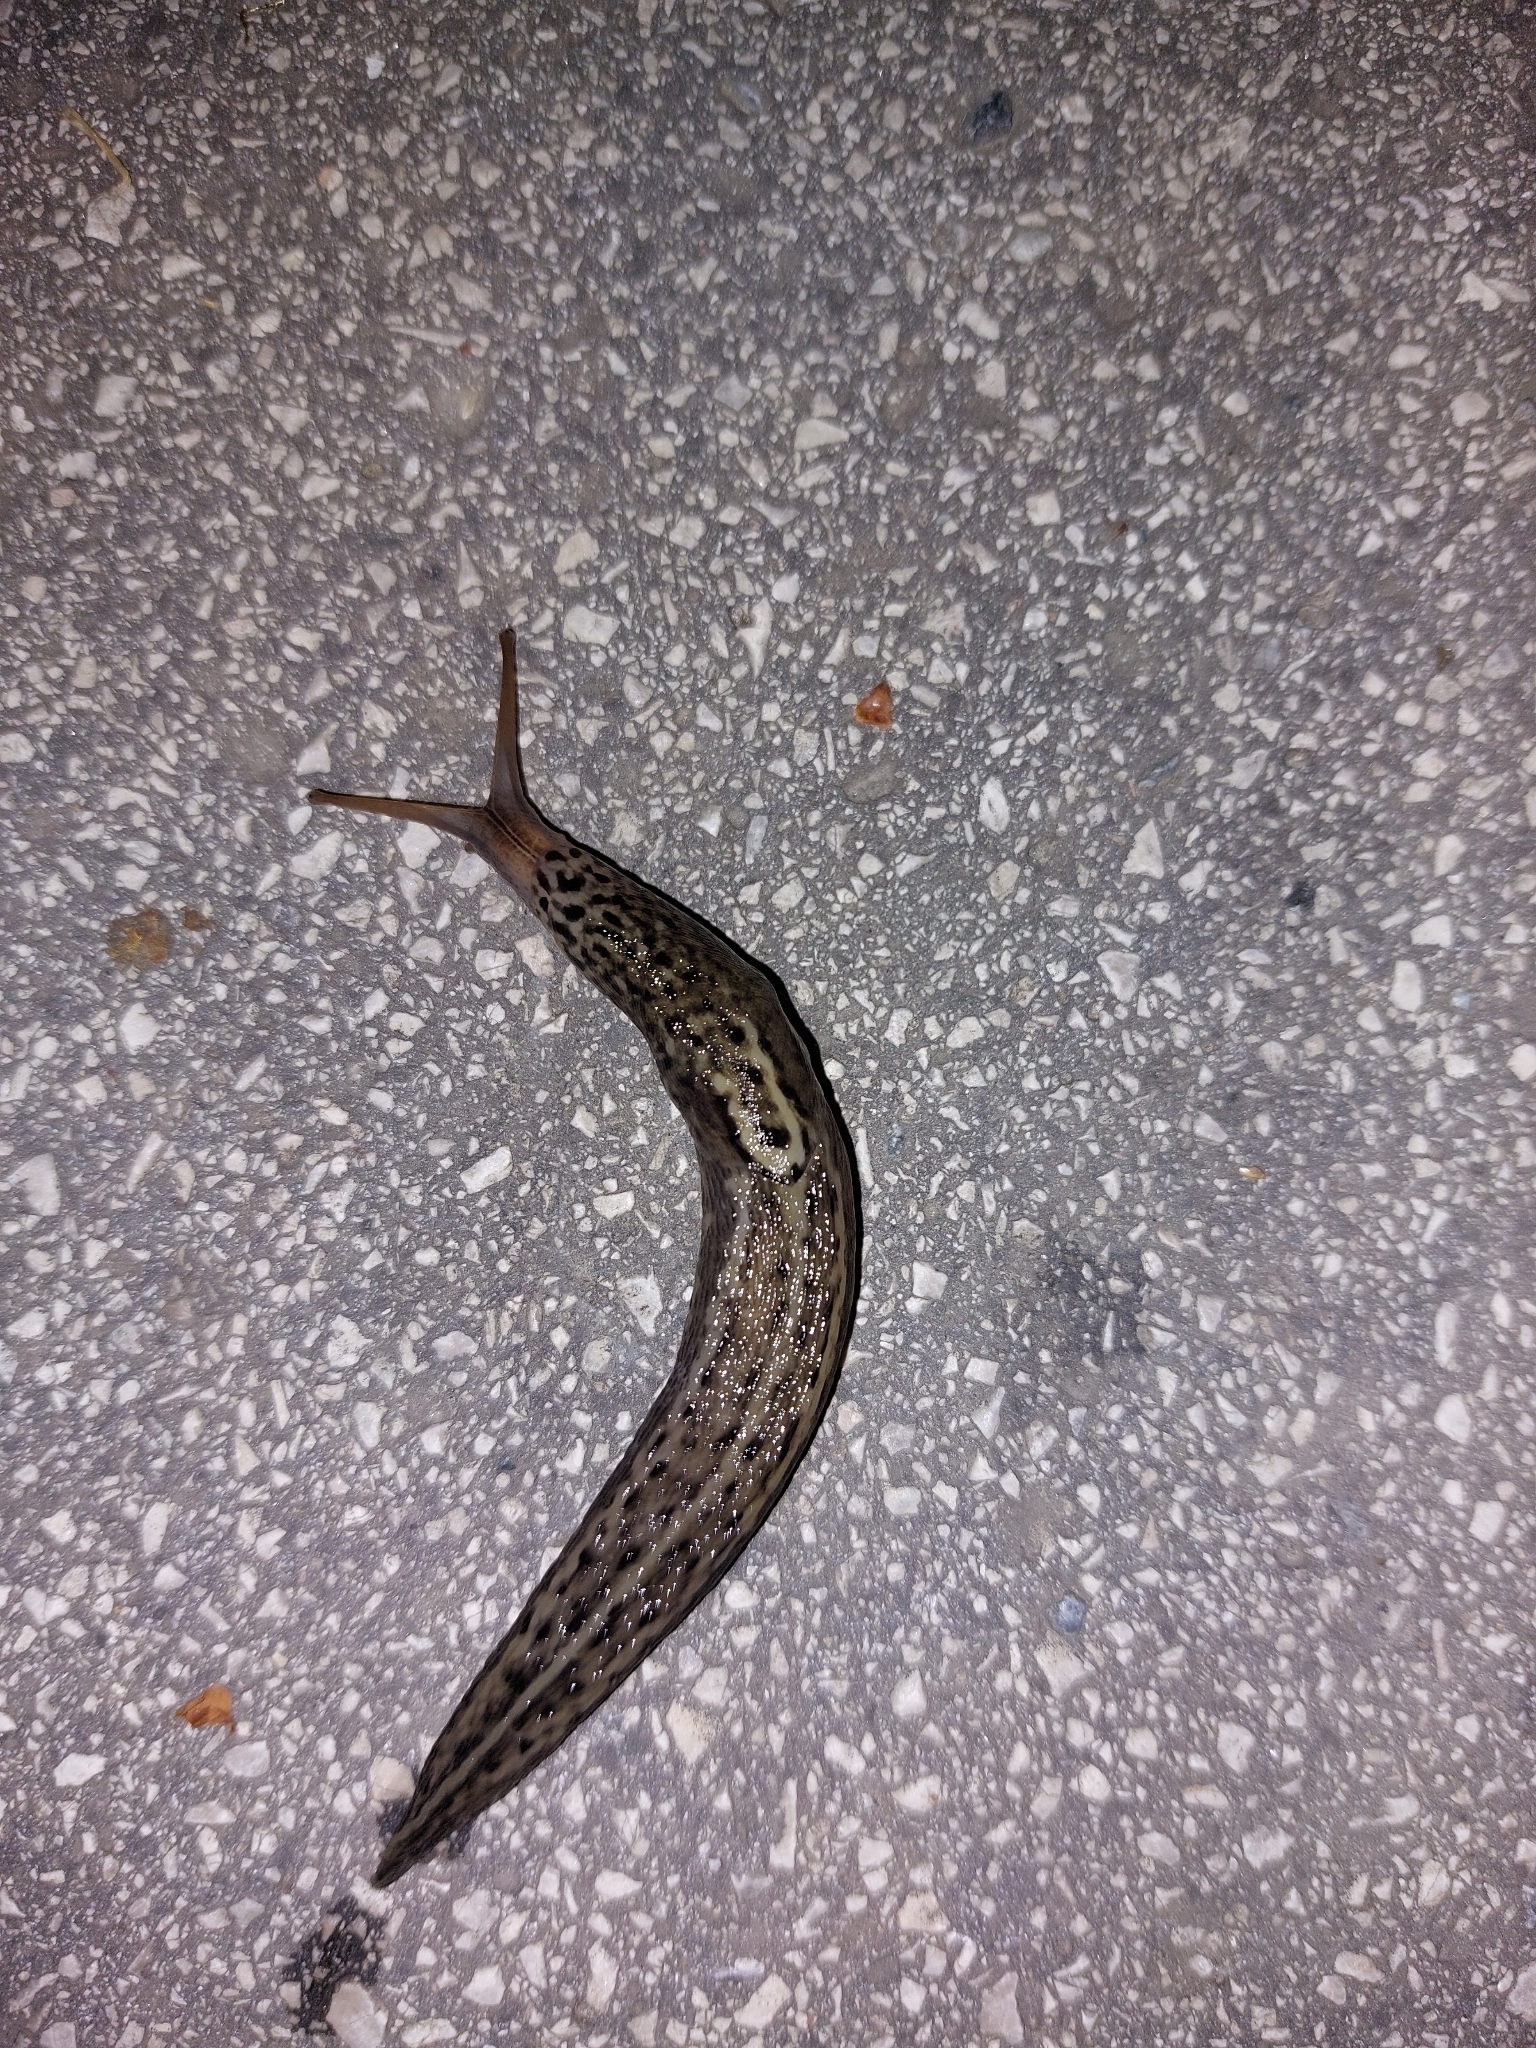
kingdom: Animalia
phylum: Mollusca
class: Gastropoda
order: Stylommatophora
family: Limacidae
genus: Limax
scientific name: Limax maximus
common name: Great grey slug
